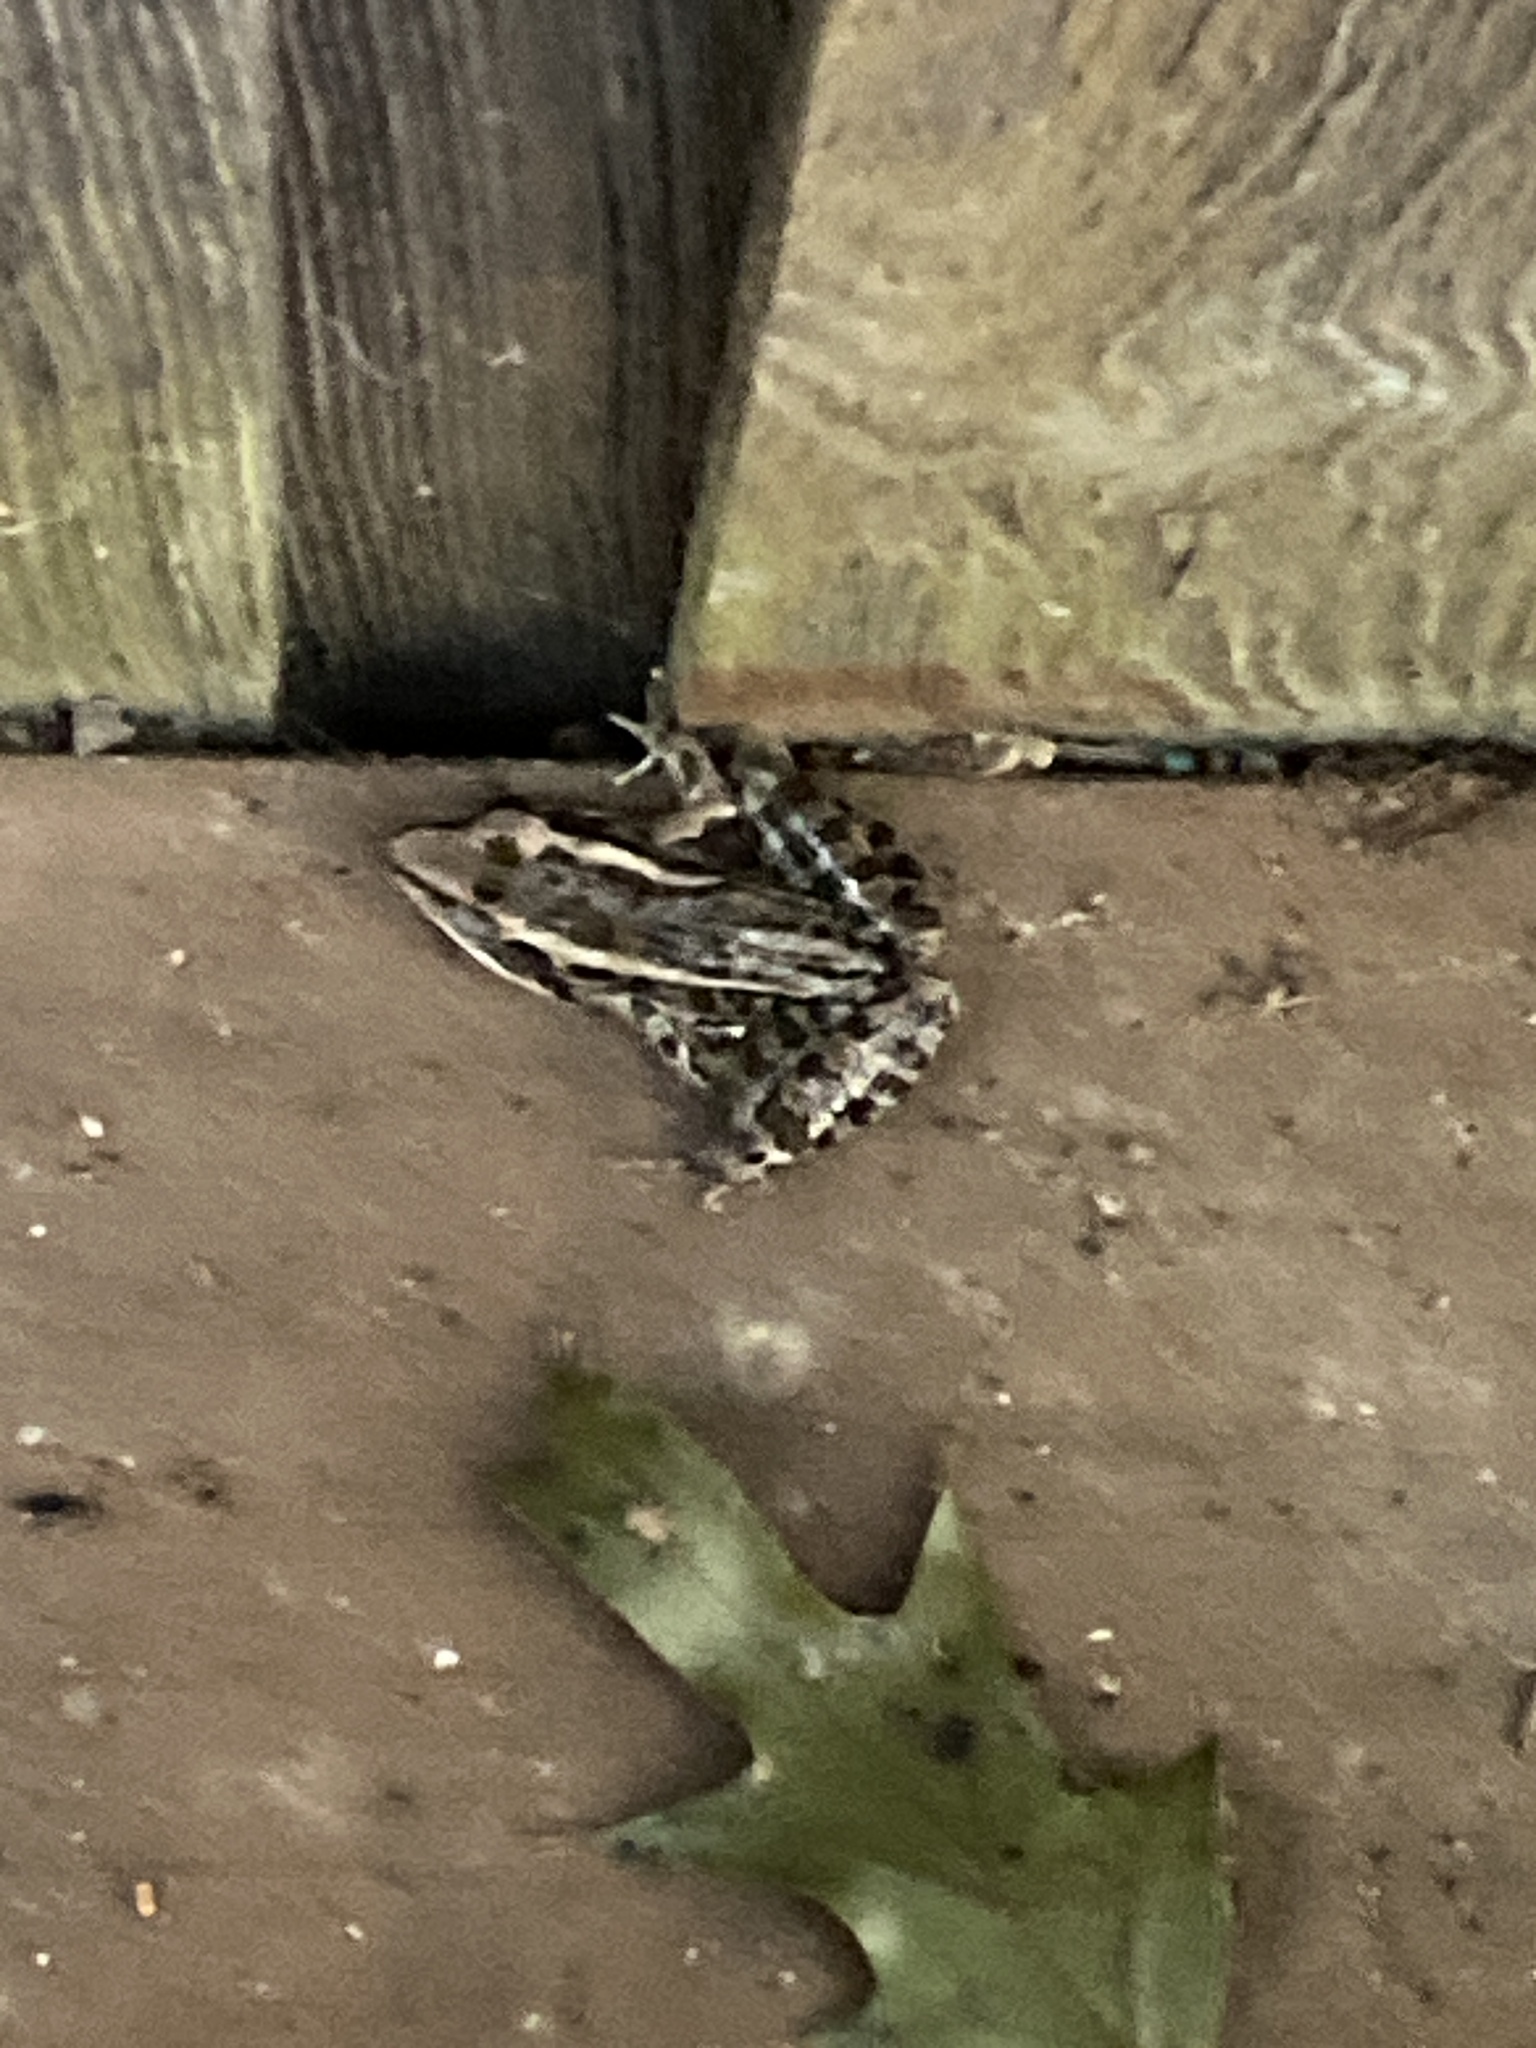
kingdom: Animalia
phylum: Chordata
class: Amphibia
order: Anura
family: Ranidae
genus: Lithobates
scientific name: Lithobates sphenocephalus
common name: Southern leopard frog
